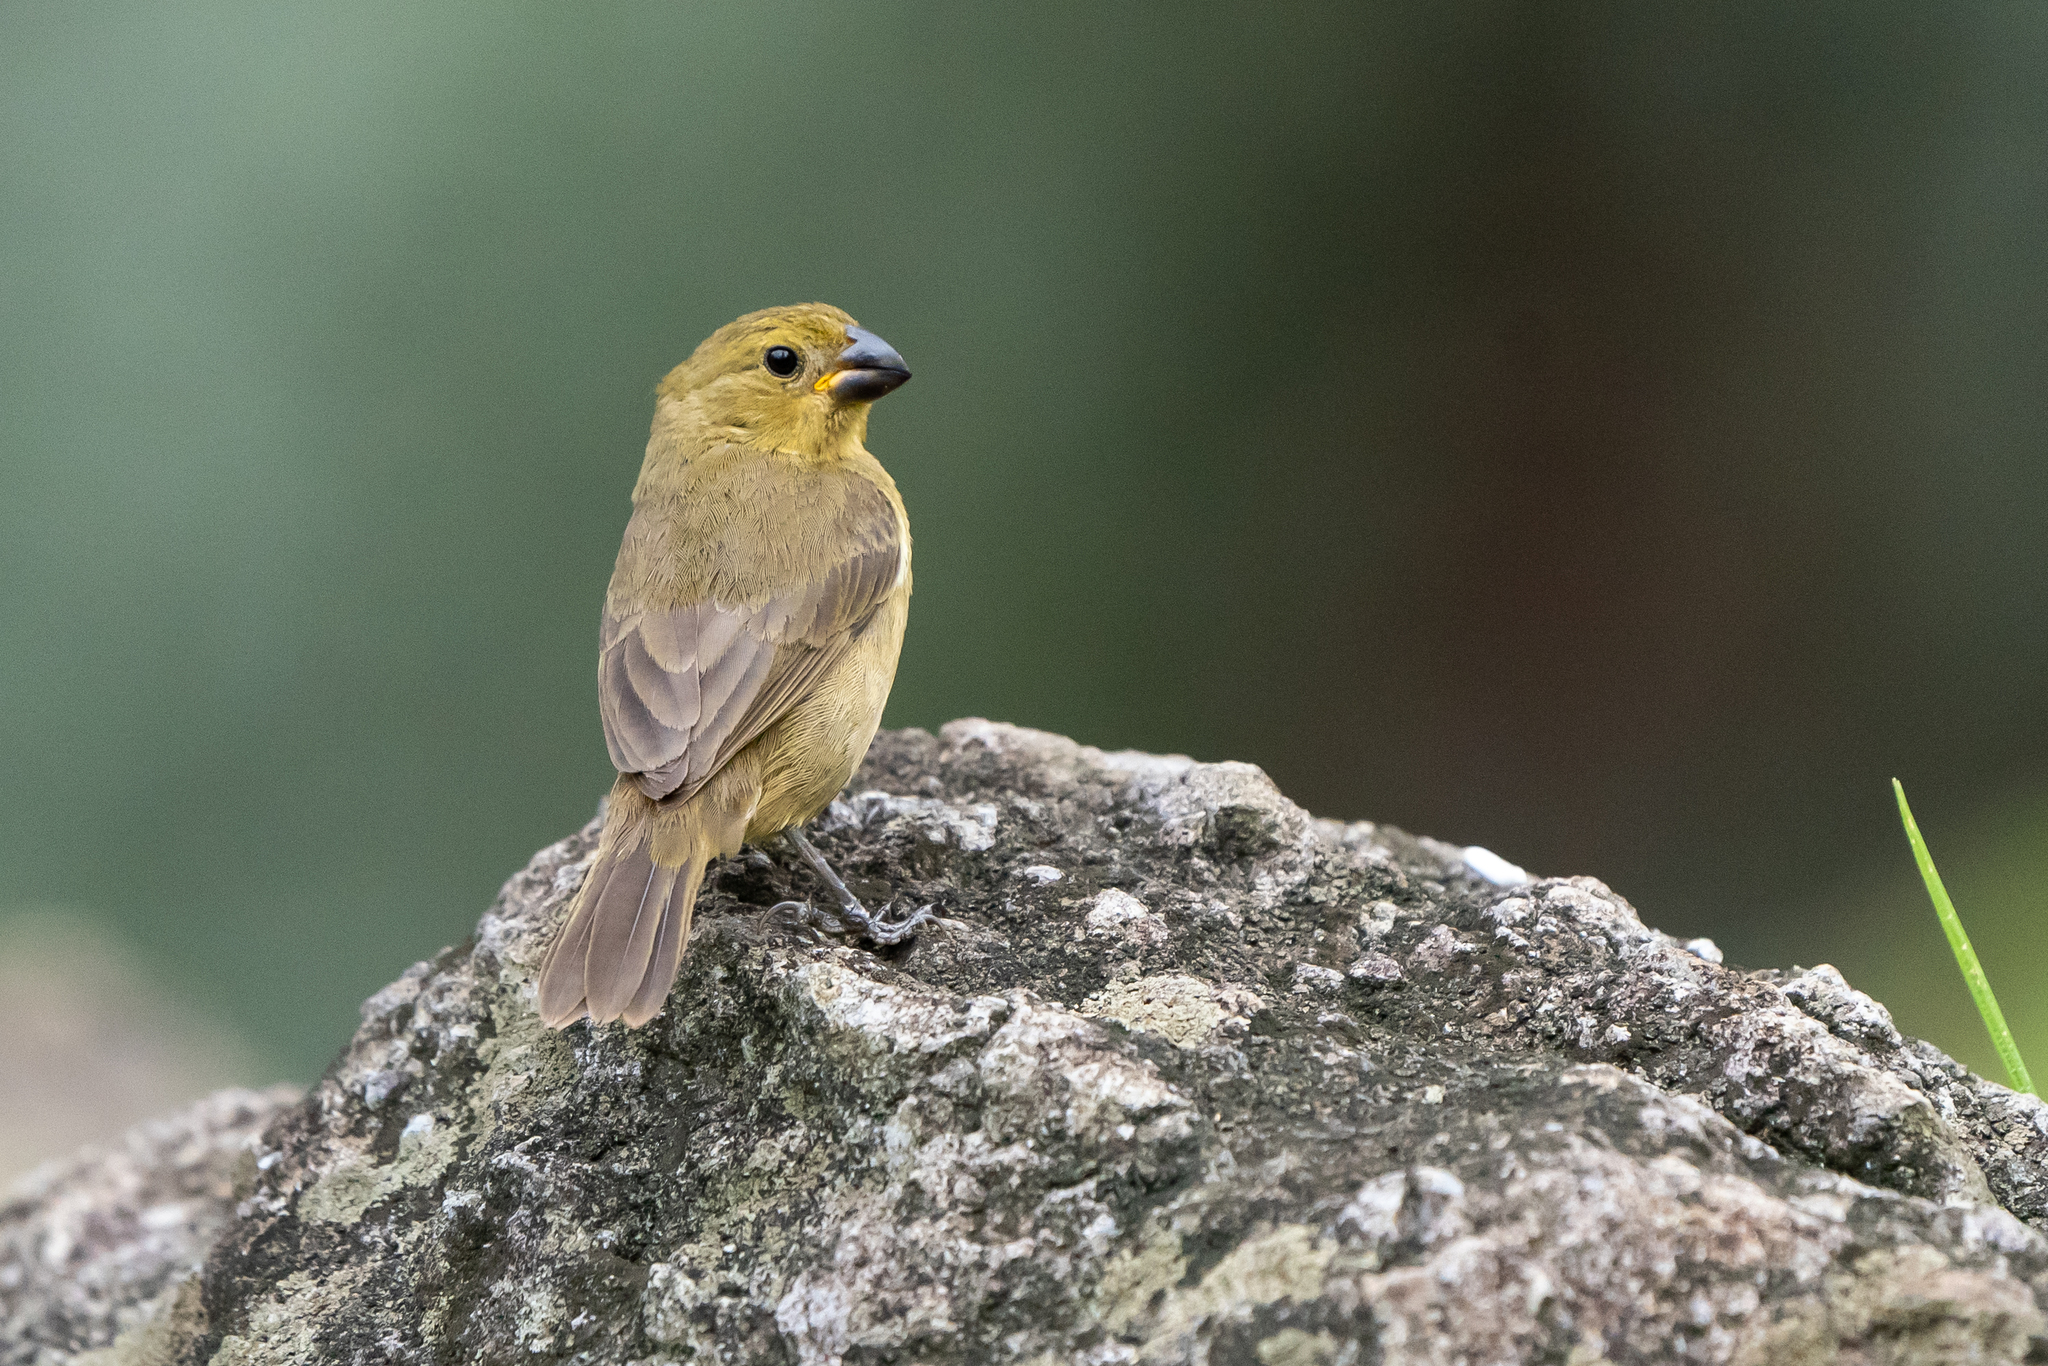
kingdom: Animalia
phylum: Chordata
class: Aves
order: Passeriformes
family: Thraupidae
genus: Sporophila
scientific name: Sporophila corvina
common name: Variable seedeater
